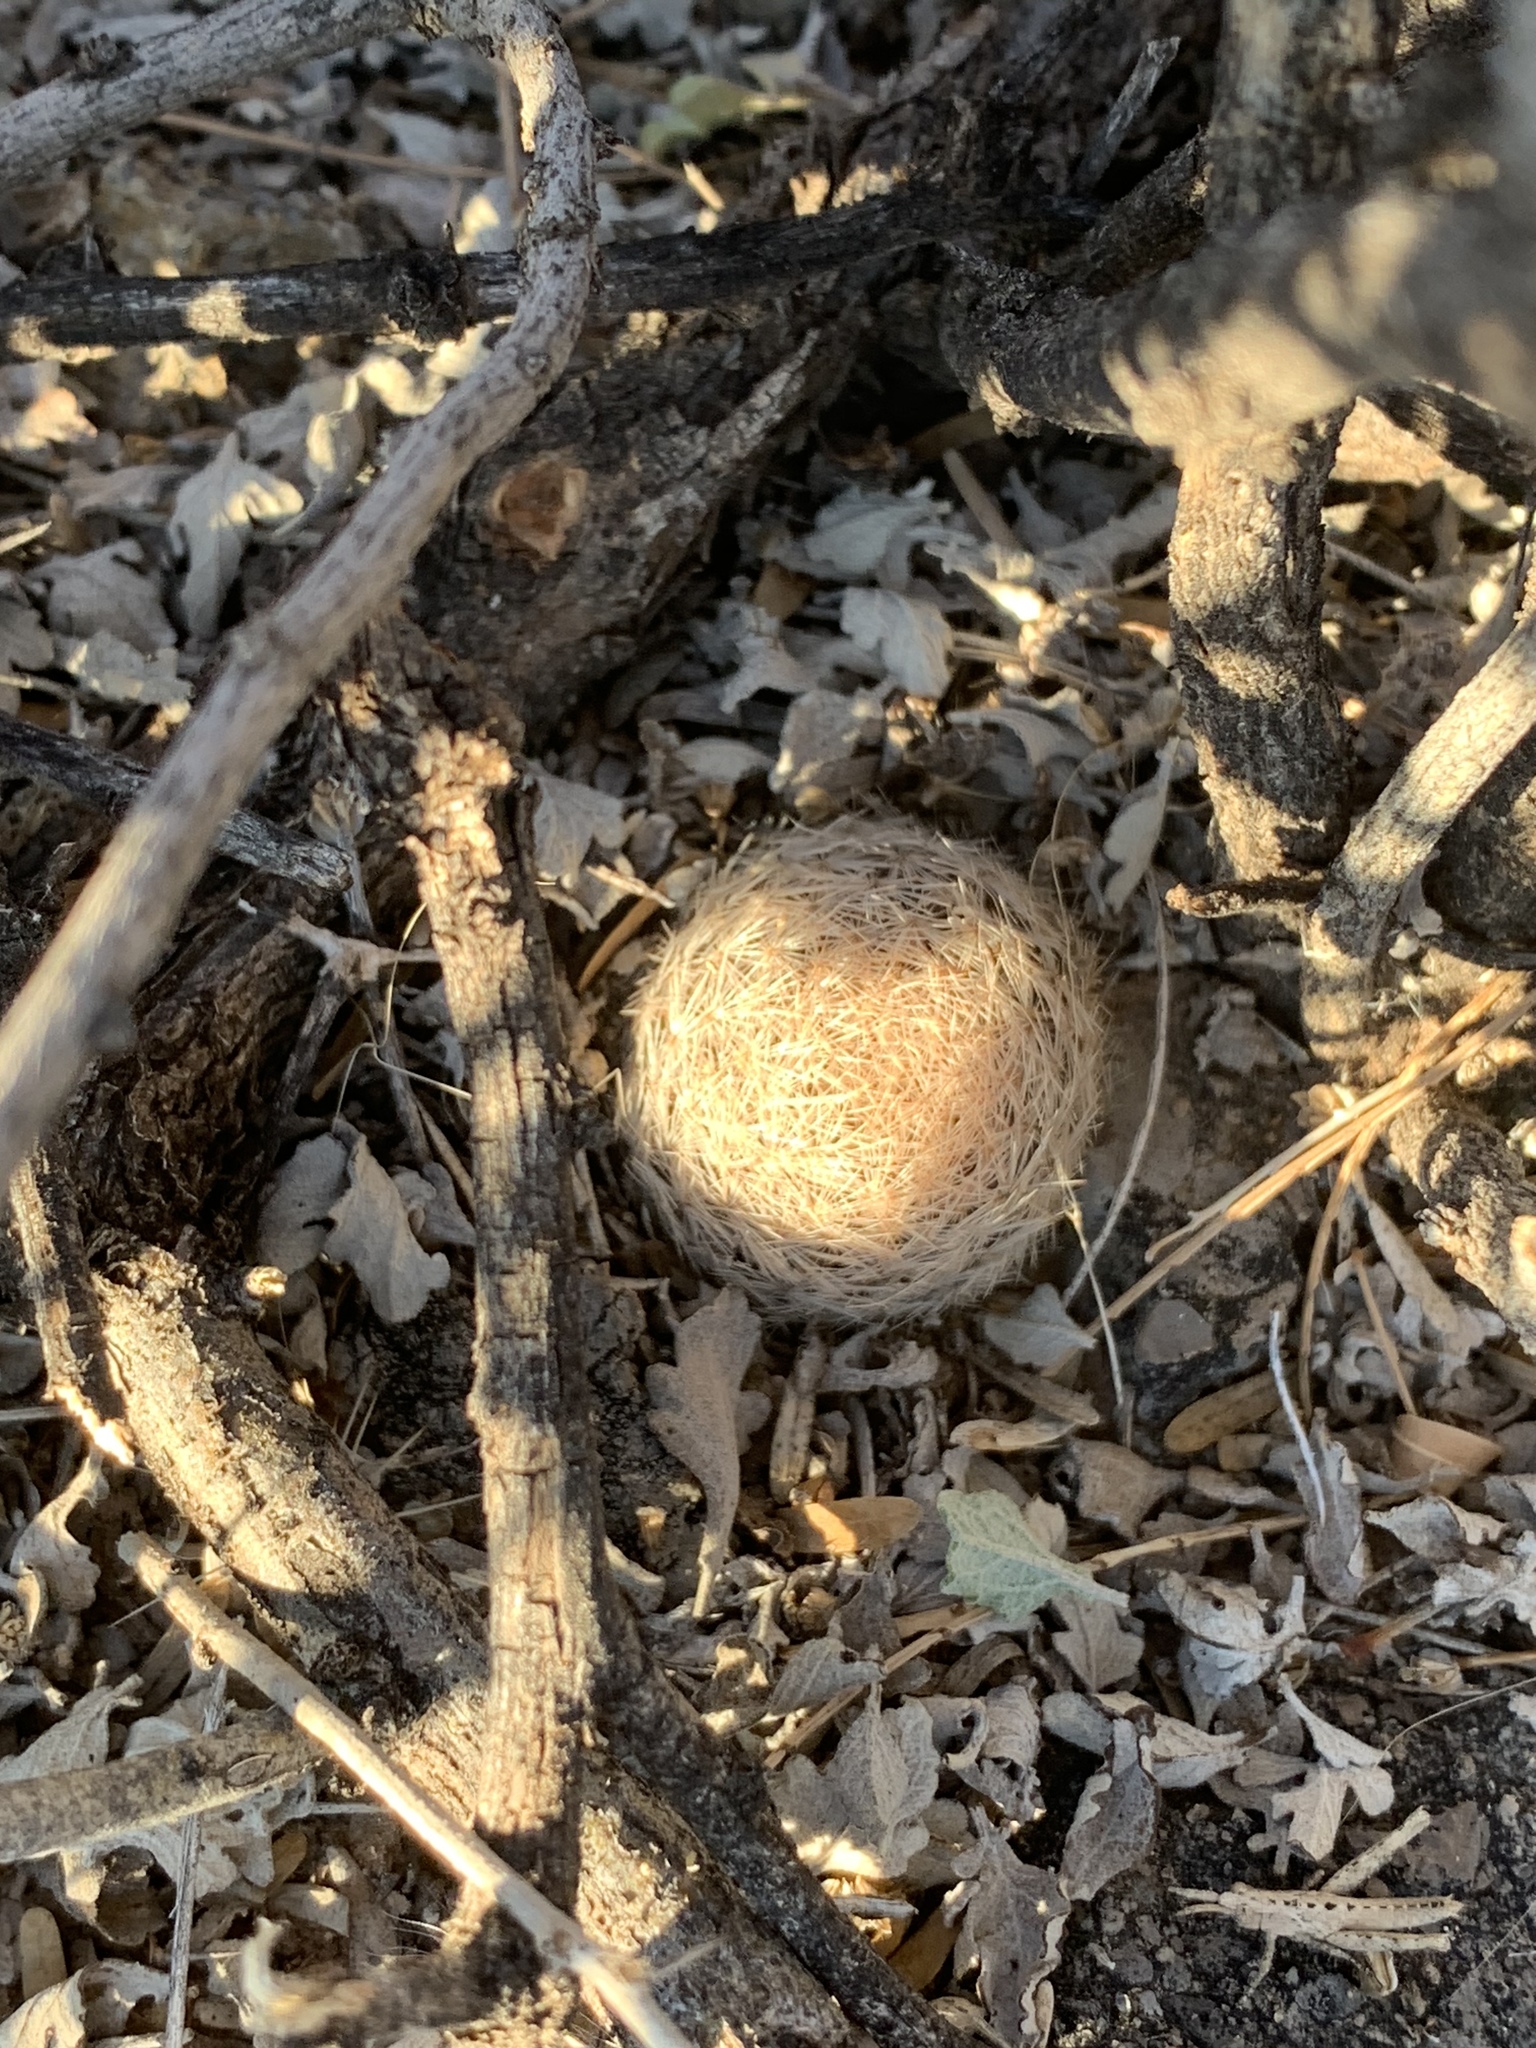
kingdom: Plantae
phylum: Tracheophyta
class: Magnoliopsida
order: Caryophyllales
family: Cactaceae
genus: Mammillaria
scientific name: Mammillaria lasiacantha
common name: Lace-spine nipple cactus
